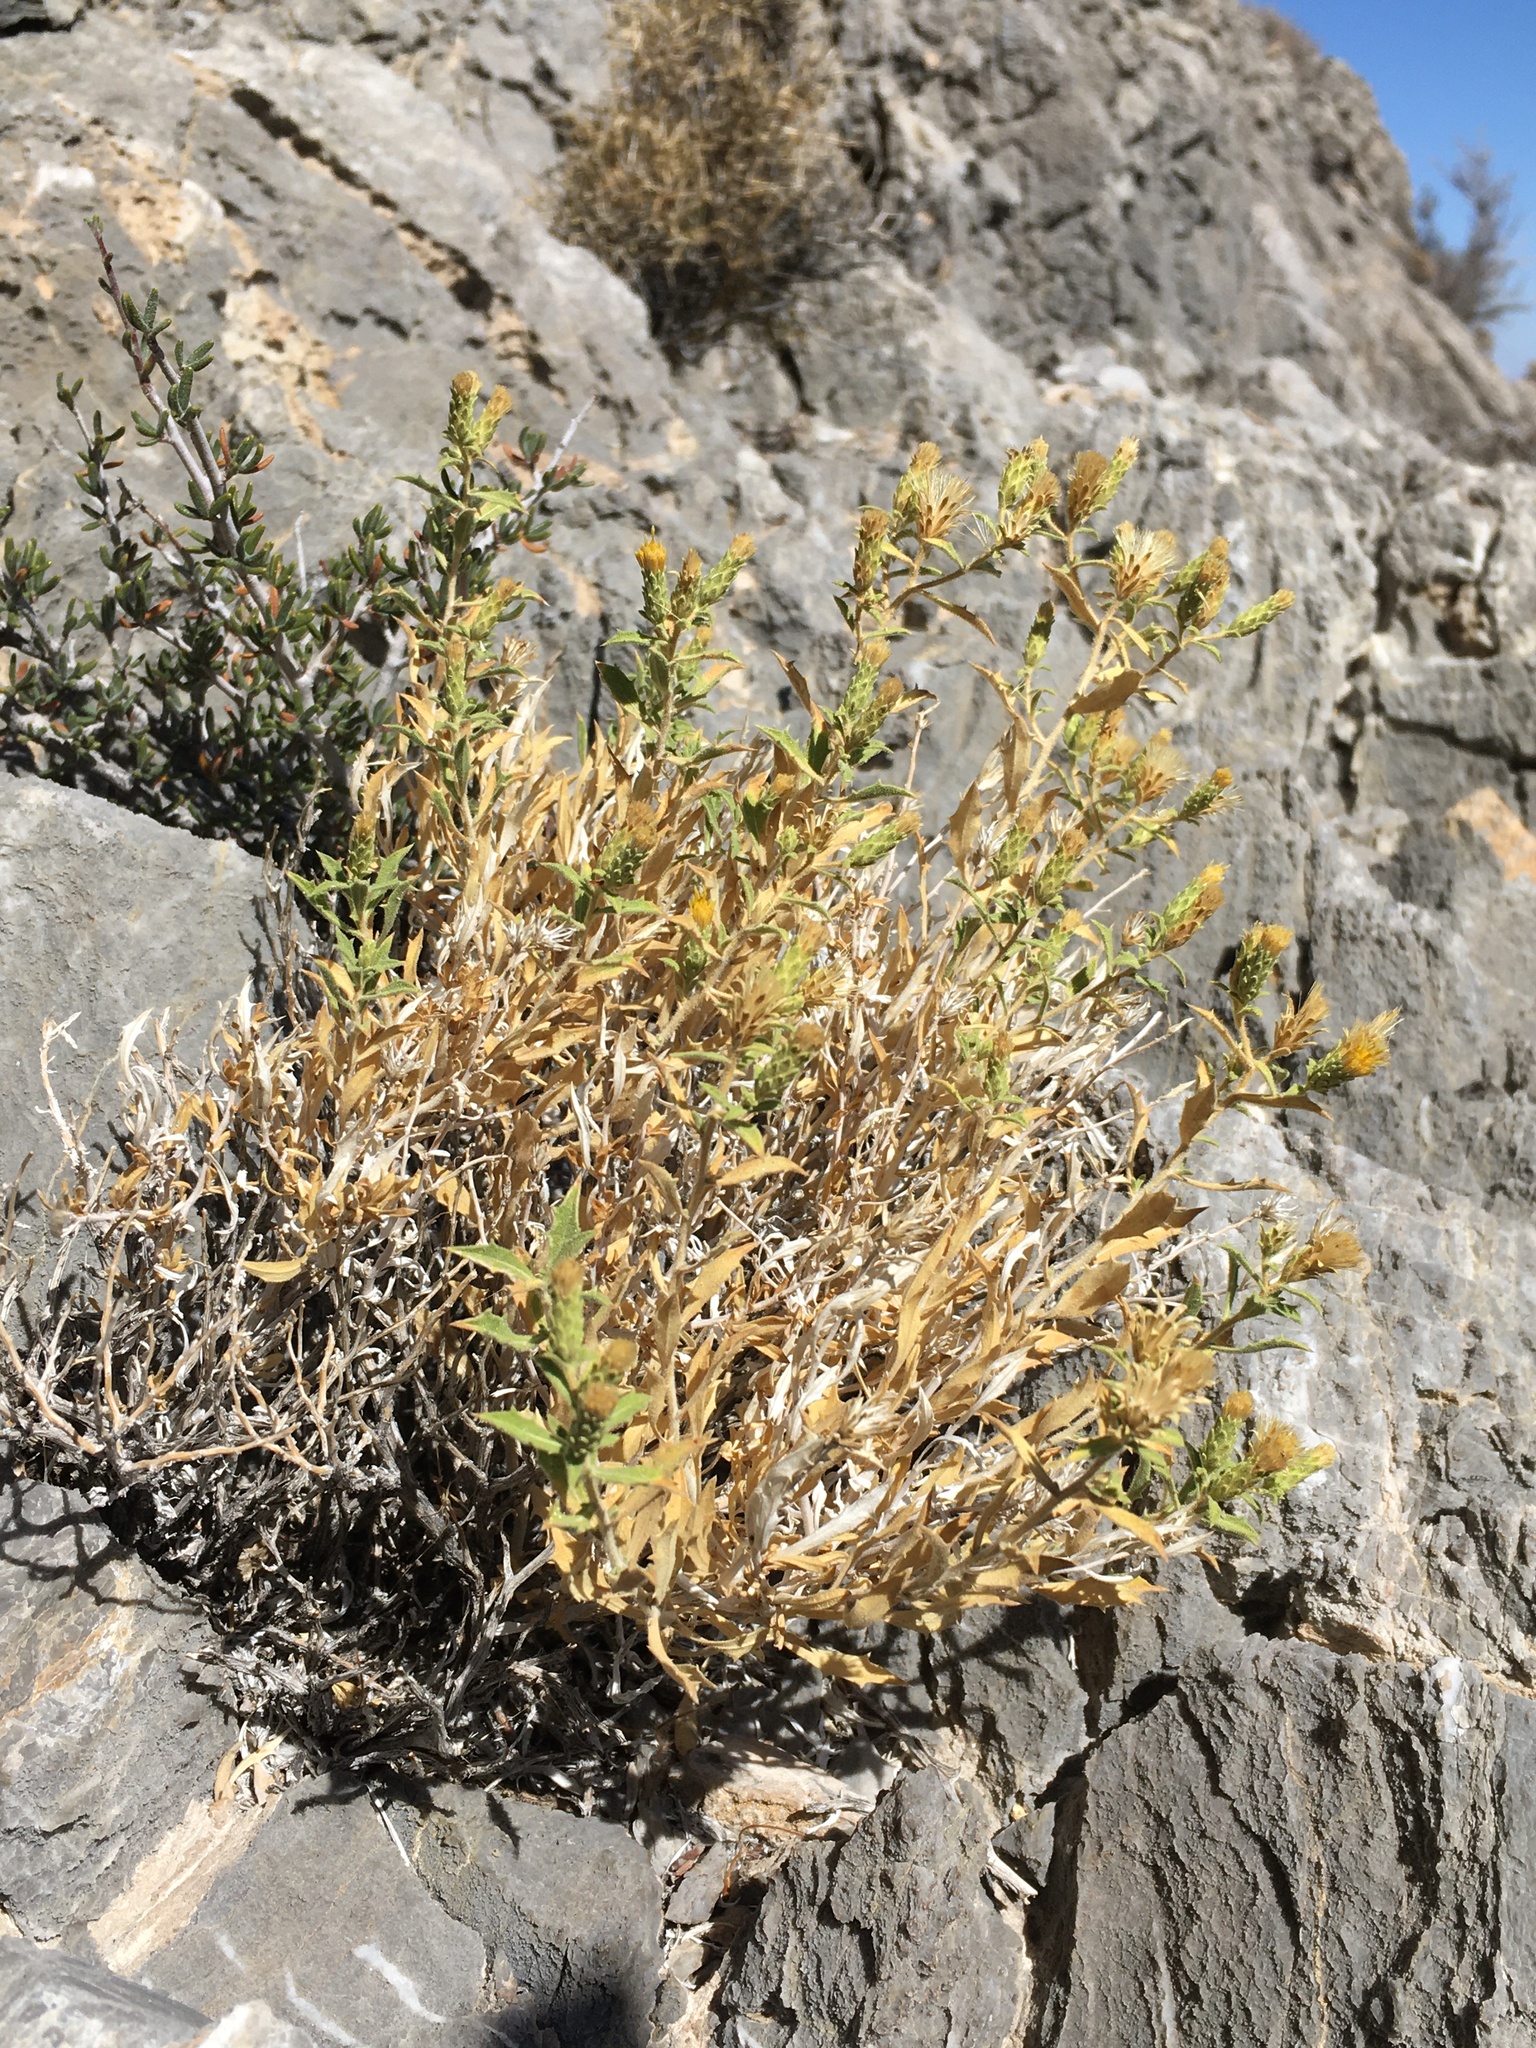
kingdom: Plantae
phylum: Tracheophyta
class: Magnoliopsida
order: Asterales
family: Asteraceae
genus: Adiaphila
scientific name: Adiaphila brickellioides
